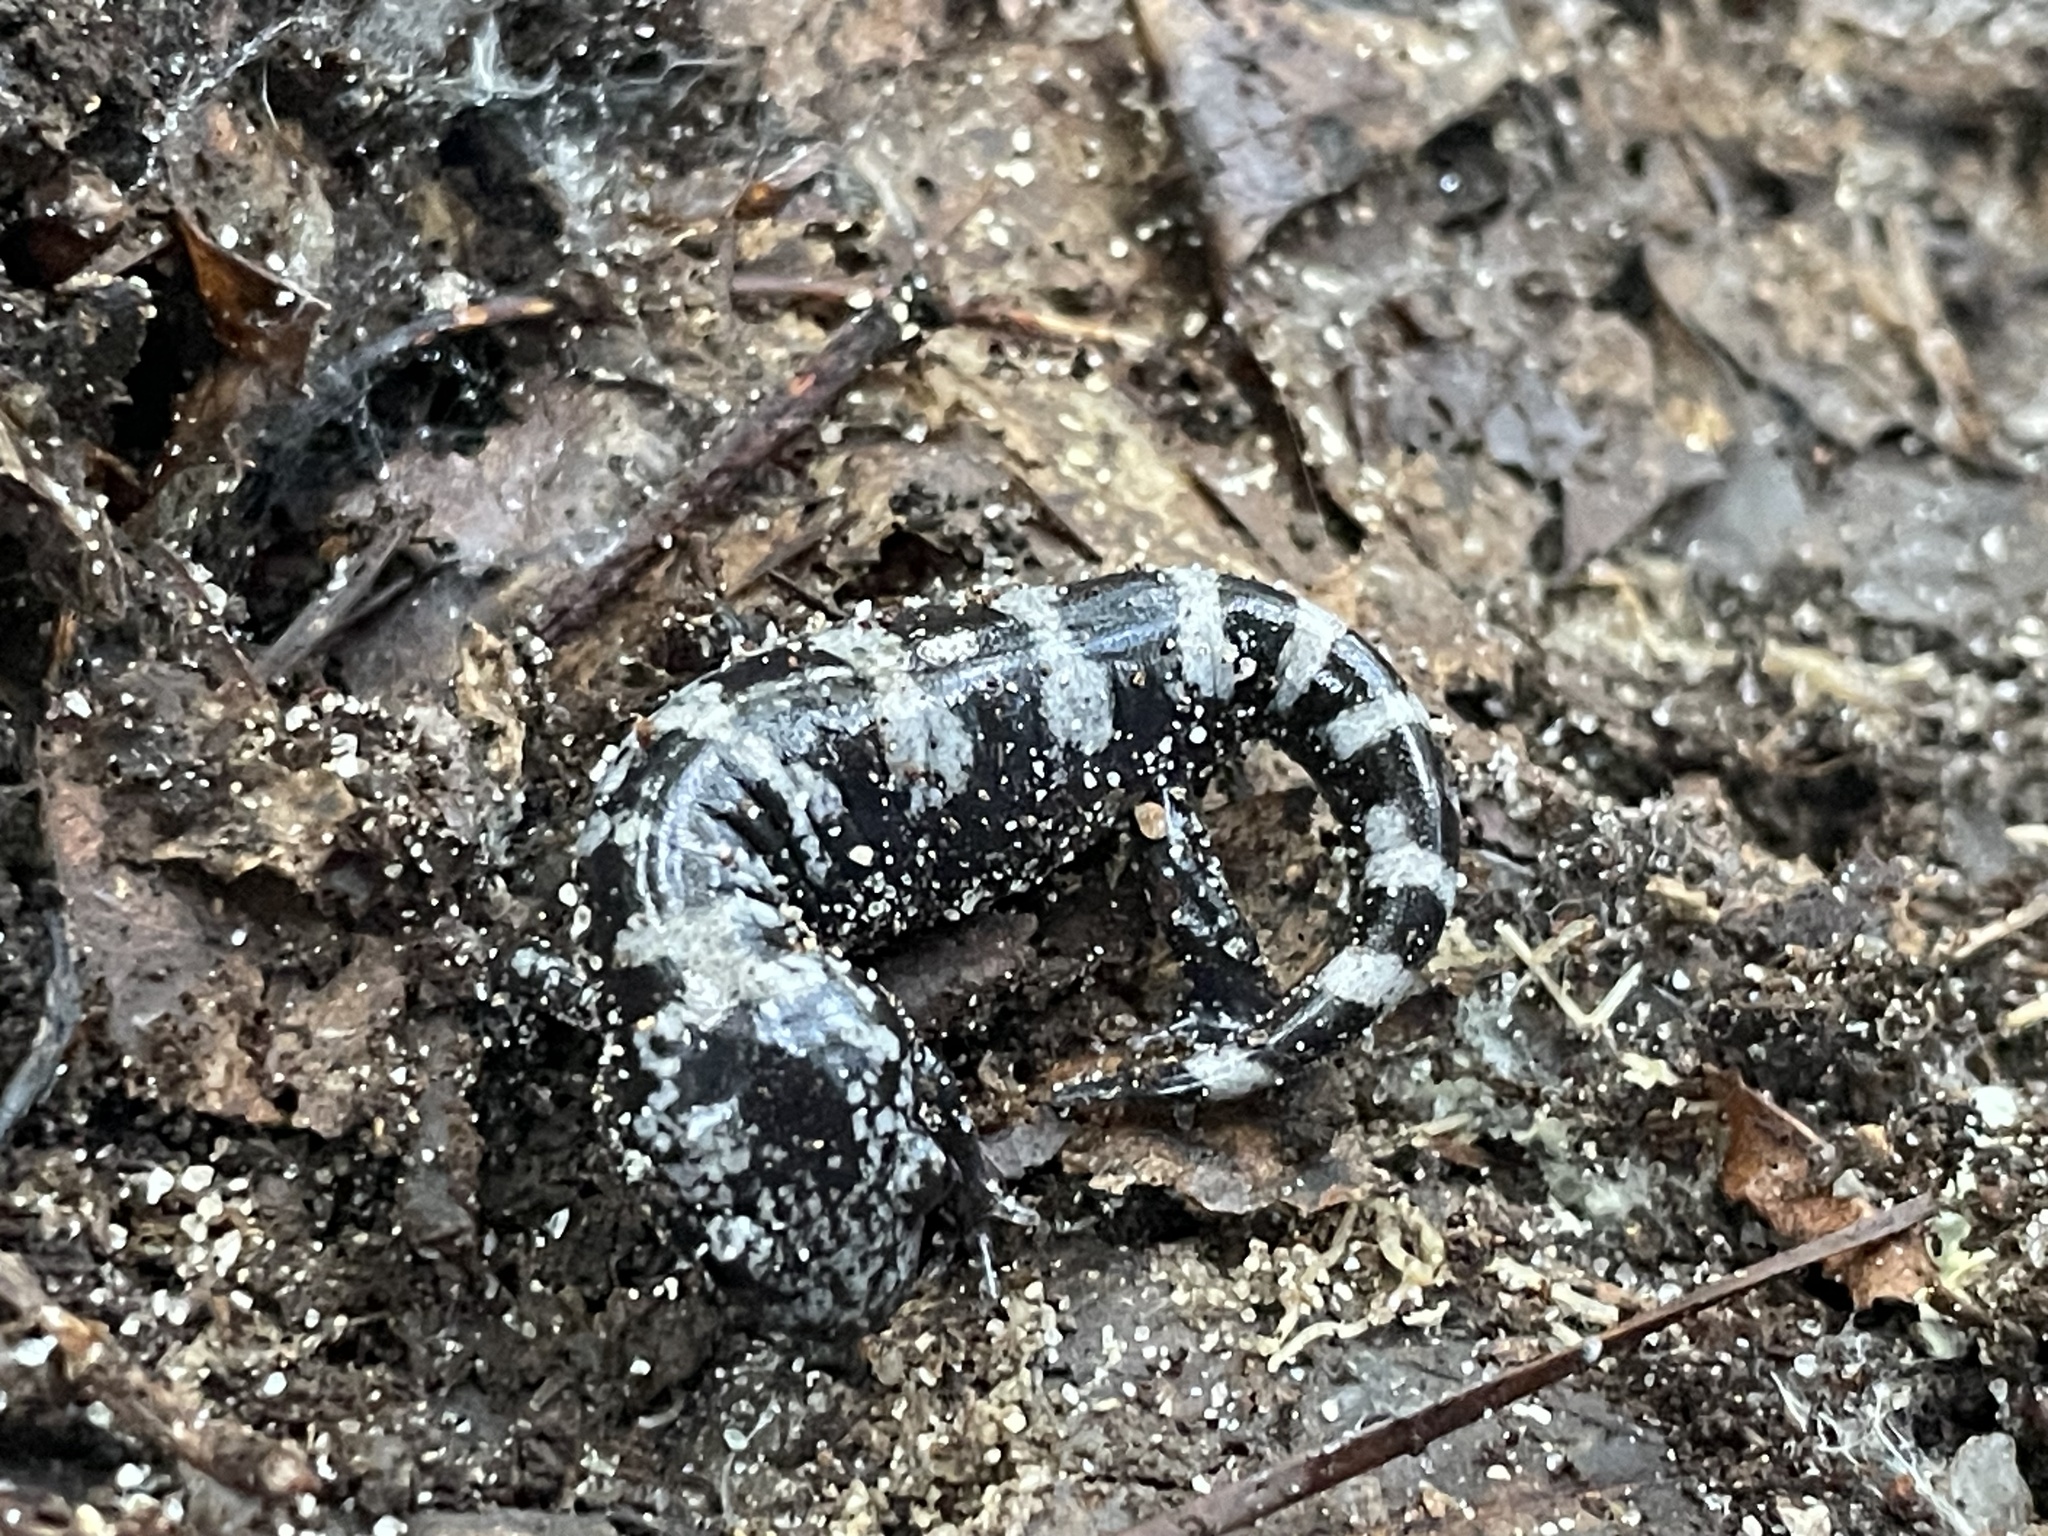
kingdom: Animalia
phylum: Chordata
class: Amphibia
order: Caudata
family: Ambystomatidae
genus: Ambystoma
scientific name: Ambystoma opacum
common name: Marbled salamander
